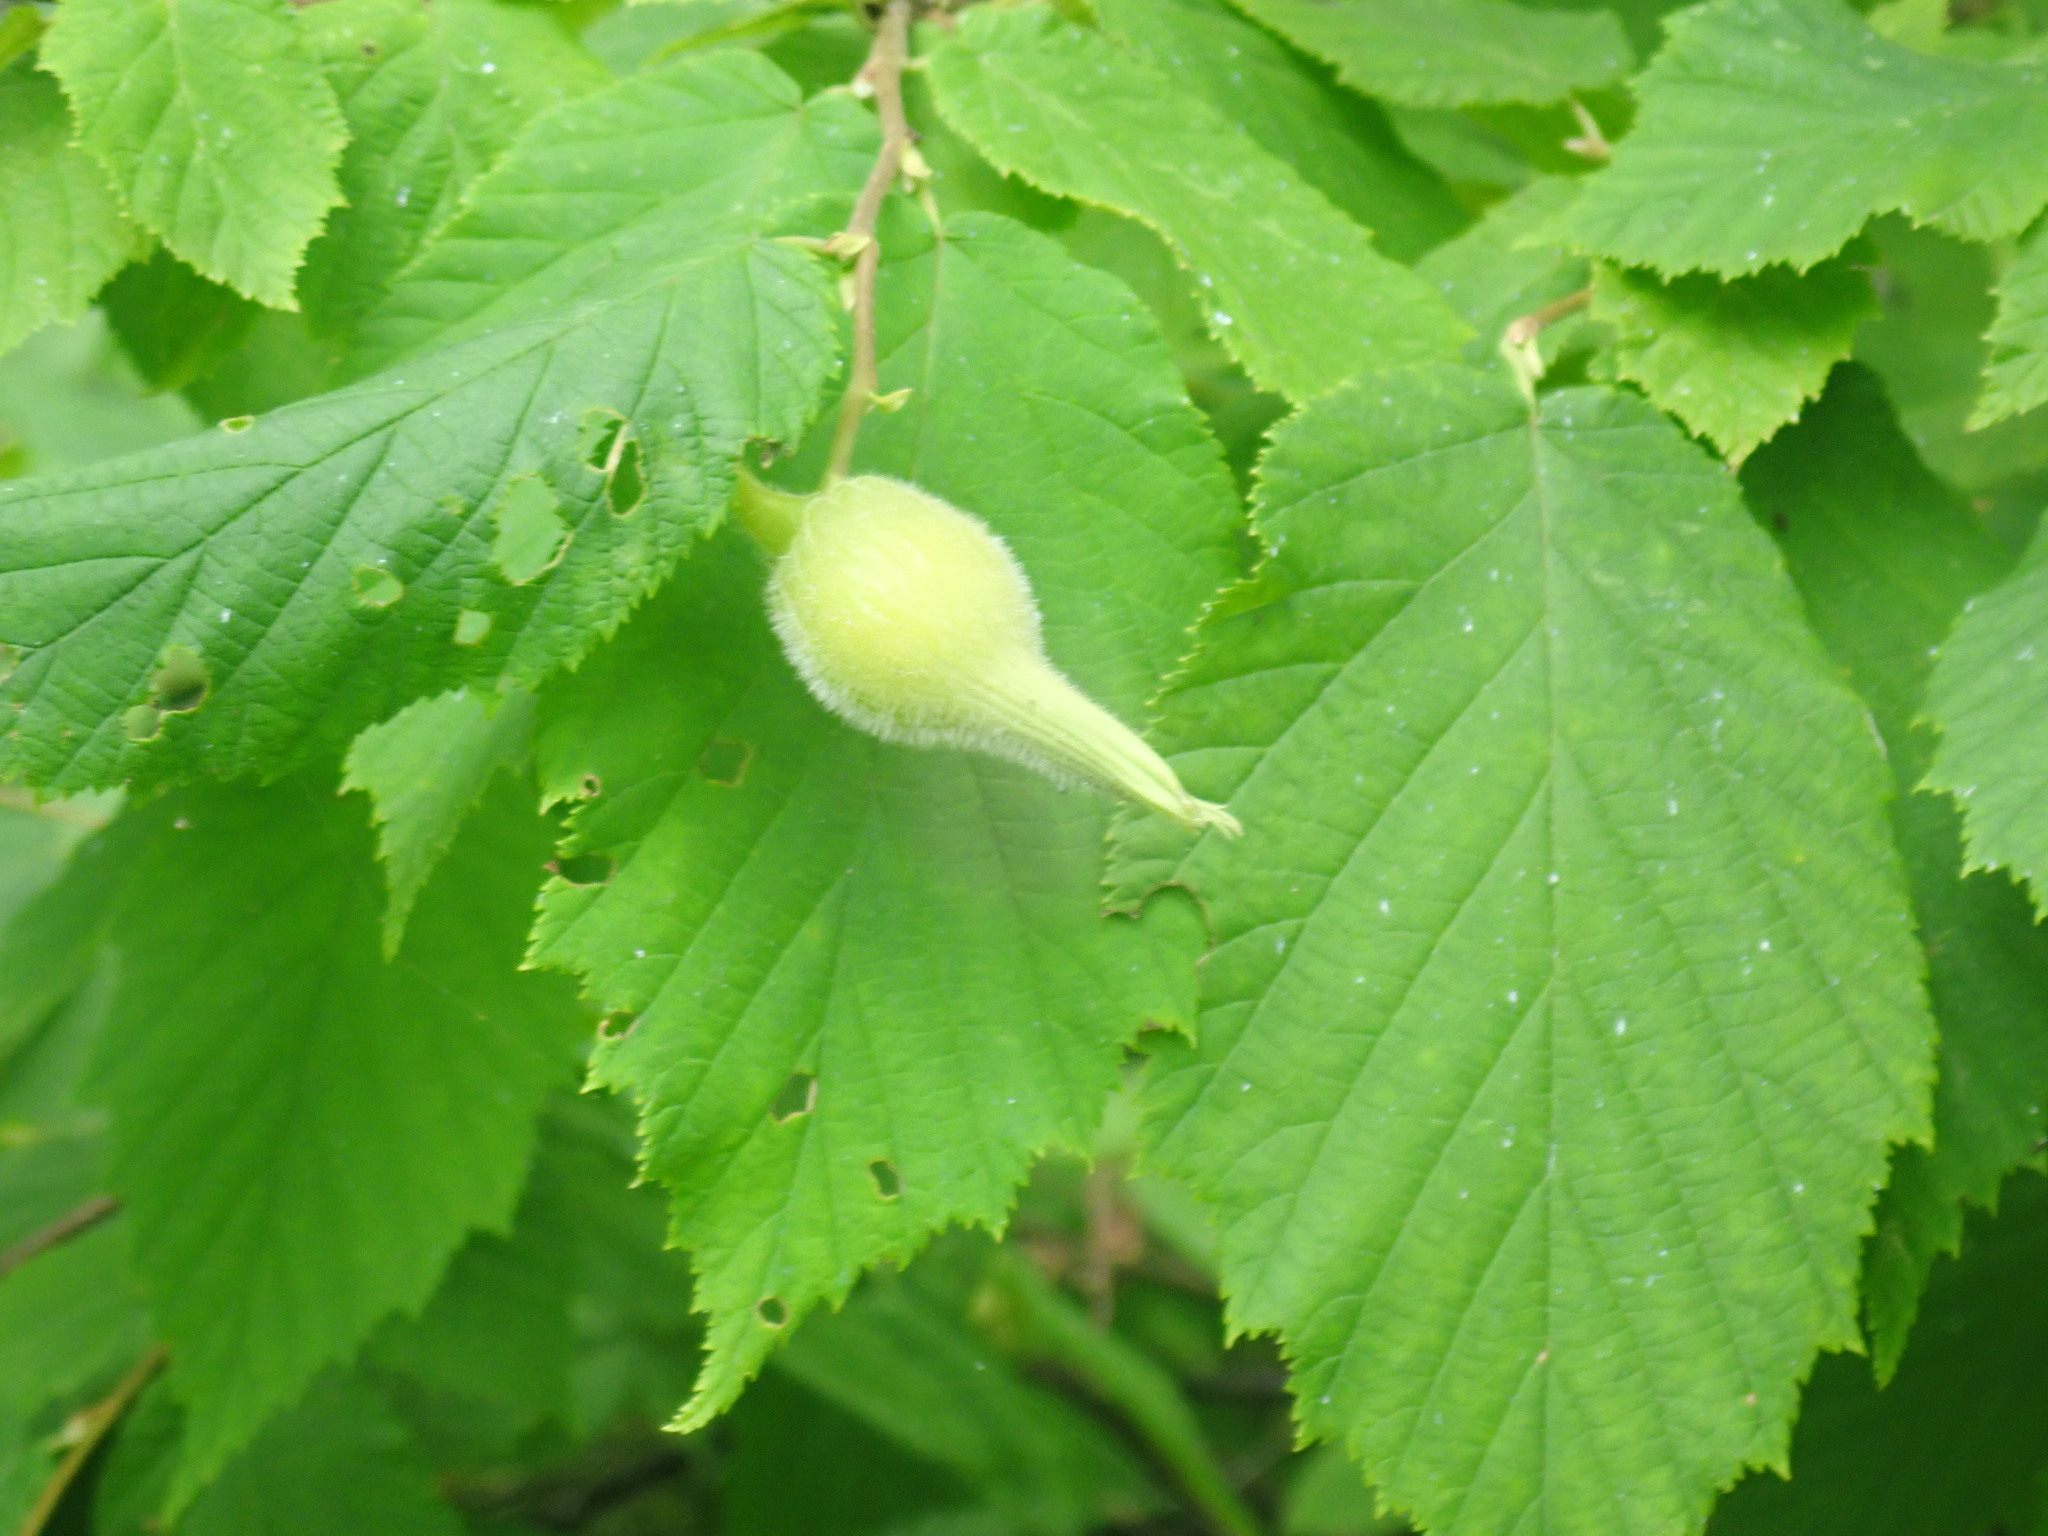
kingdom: Plantae
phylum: Tracheophyta
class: Magnoliopsida
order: Fagales
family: Betulaceae
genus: Corylus
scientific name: Corylus cornuta
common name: Beaked hazel
